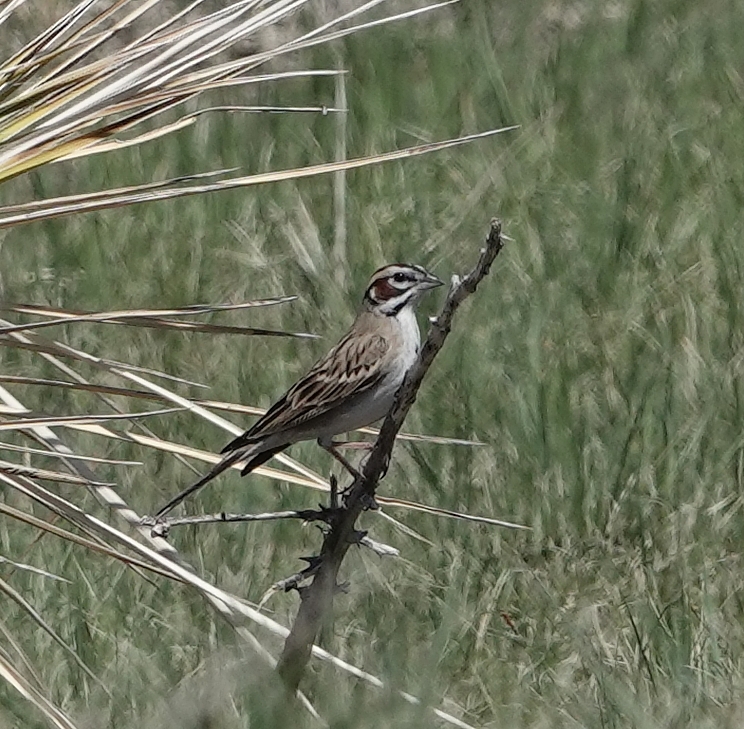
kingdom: Animalia
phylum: Chordata
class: Aves
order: Passeriformes
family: Passerellidae
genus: Chondestes
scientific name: Chondestes grammacus
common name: Lark sparrow
